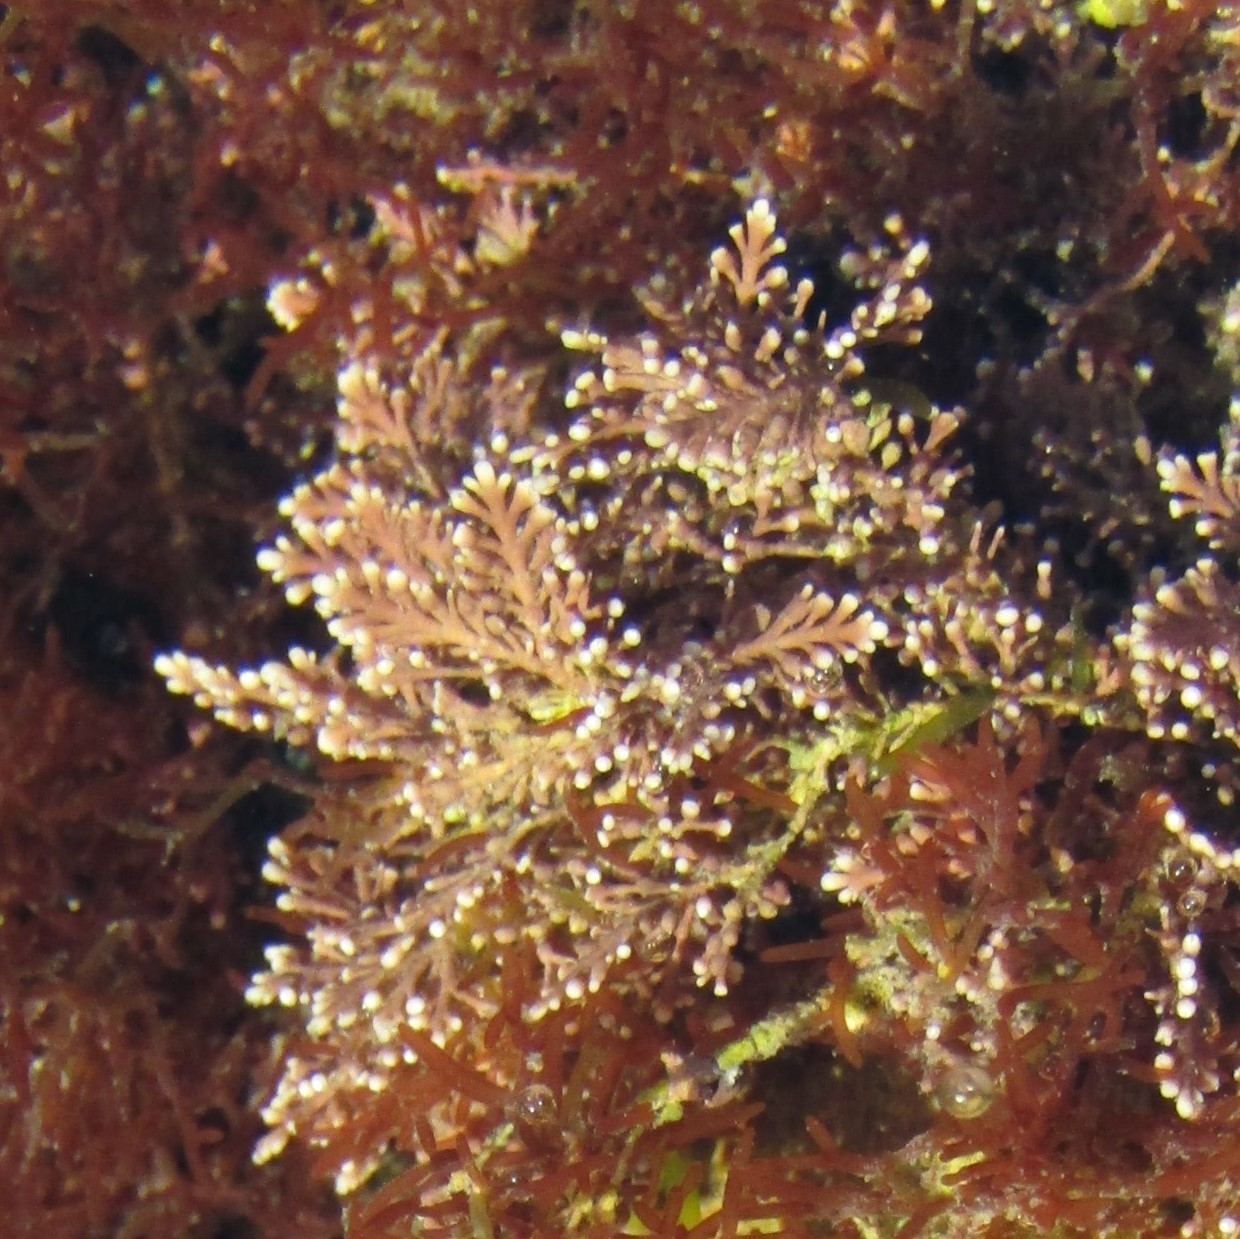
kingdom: Plantae
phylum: Rhodophyta
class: Florideophyceae
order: Corallinales
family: Corallinaceae
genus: Corallina
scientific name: Corallina officinalis
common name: Coral weed
